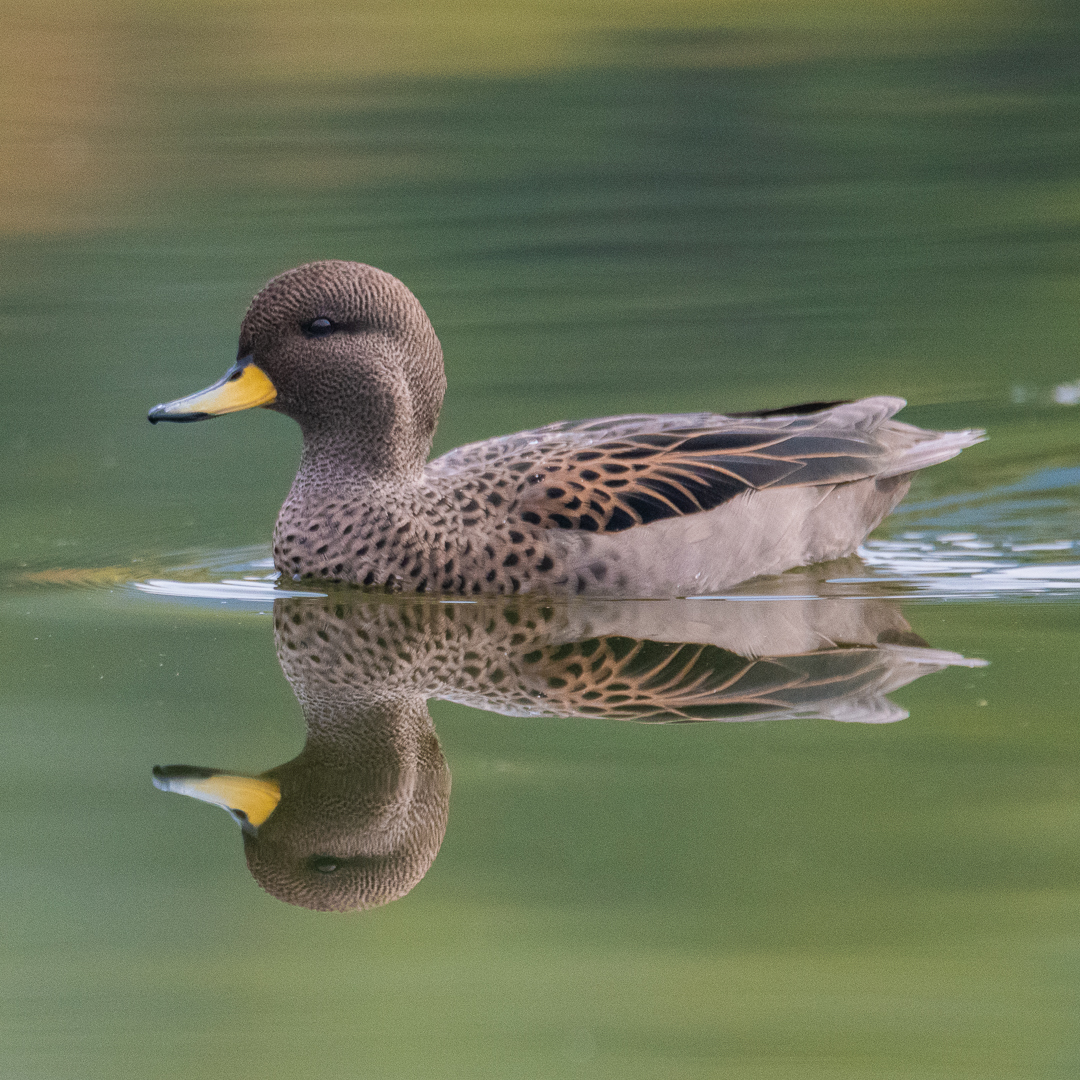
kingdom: Animalia
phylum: Chordata
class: Aves
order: Anseriformes
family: Anatidae
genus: Anas
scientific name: Anas flavirostris
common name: Yellow-billed teal
